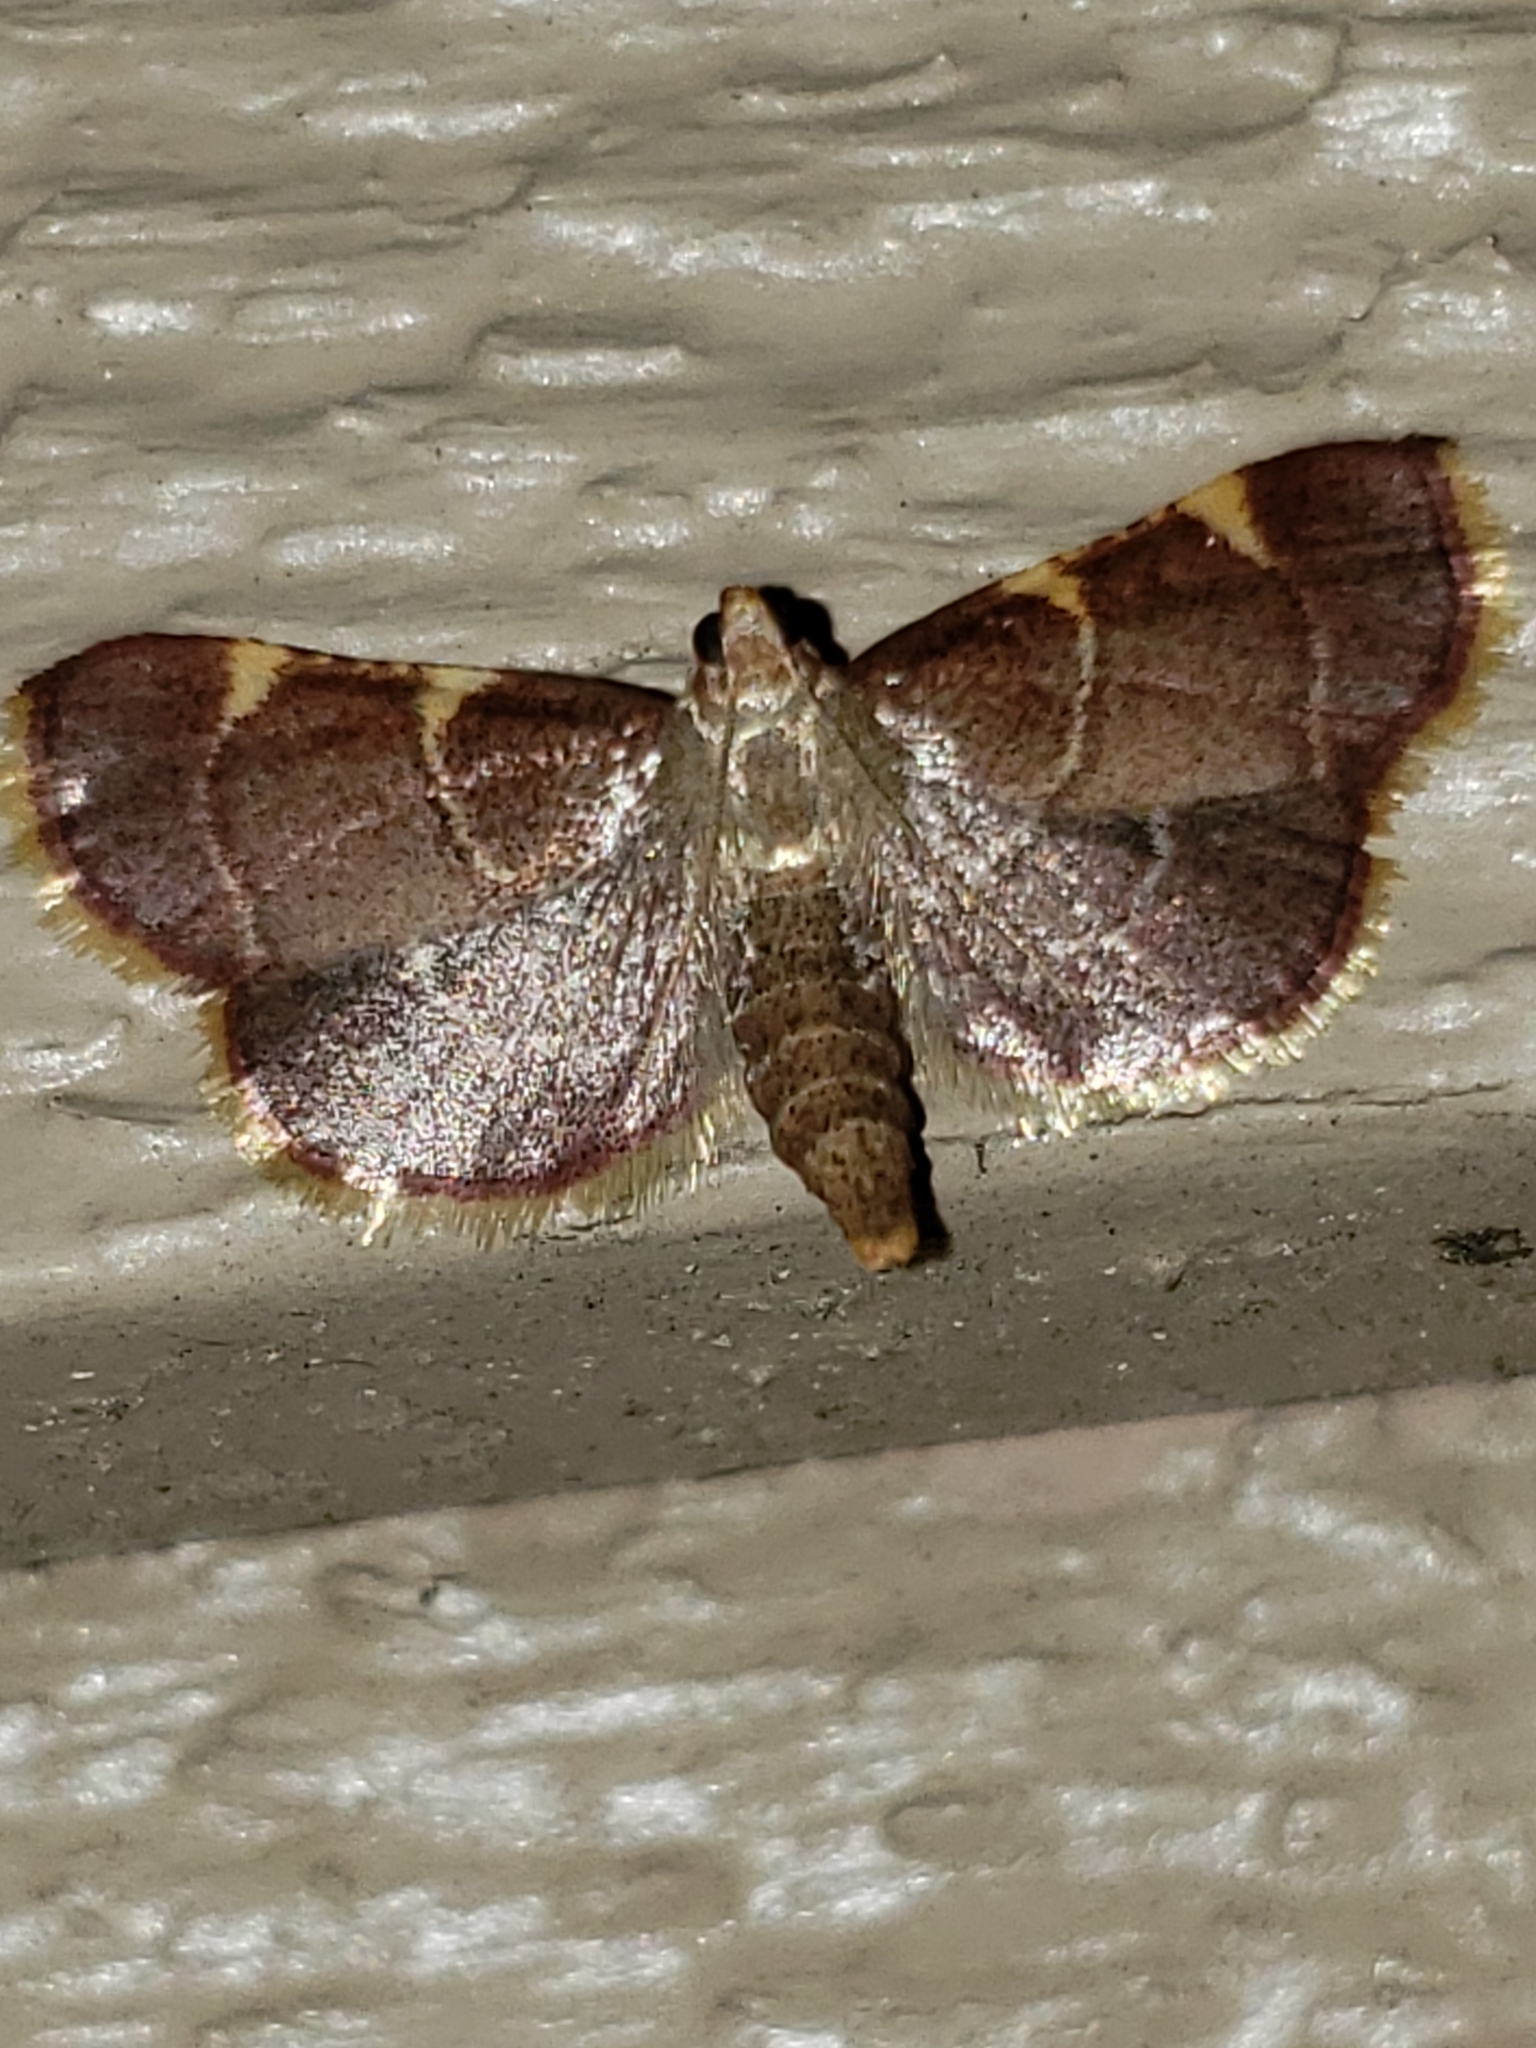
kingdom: Animalia
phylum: Arthropoda
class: Insecta
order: Lepidoptera
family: Pyralidae
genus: Hypsopygia
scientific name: Hypsopygia olinalis
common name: Yellow-fringed dolichomia moth
